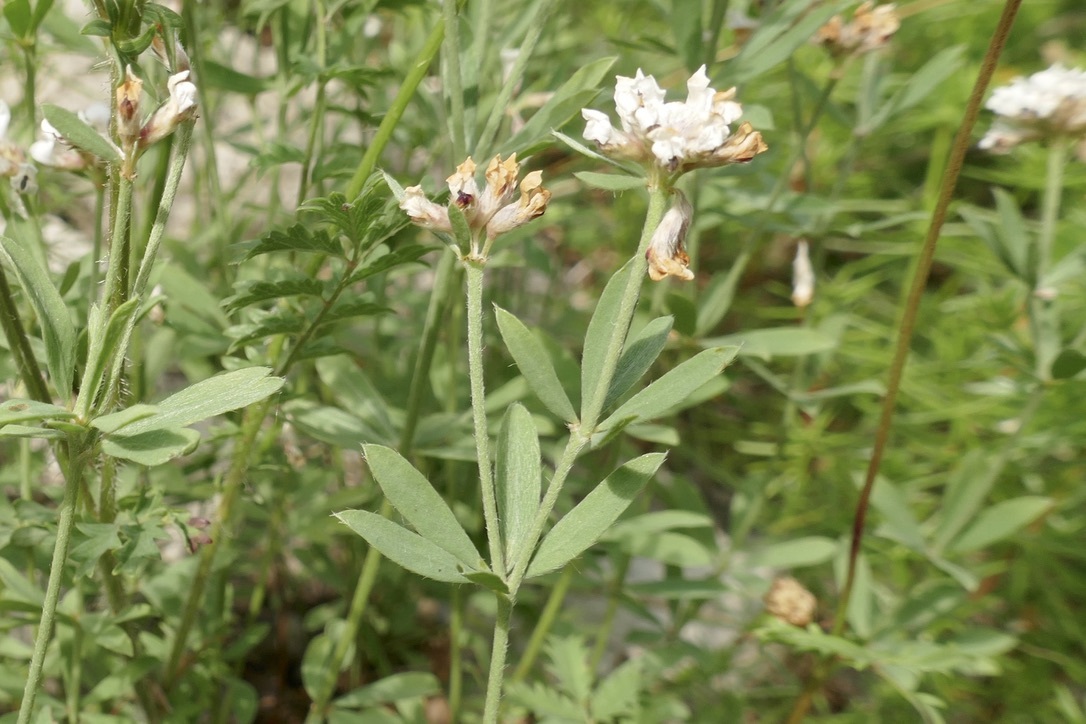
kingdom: Plantae
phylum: Tracheophyta
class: Magnoliopsida
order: Fabales
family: Fabaceae
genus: Lotus
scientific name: Lotus germanicus
